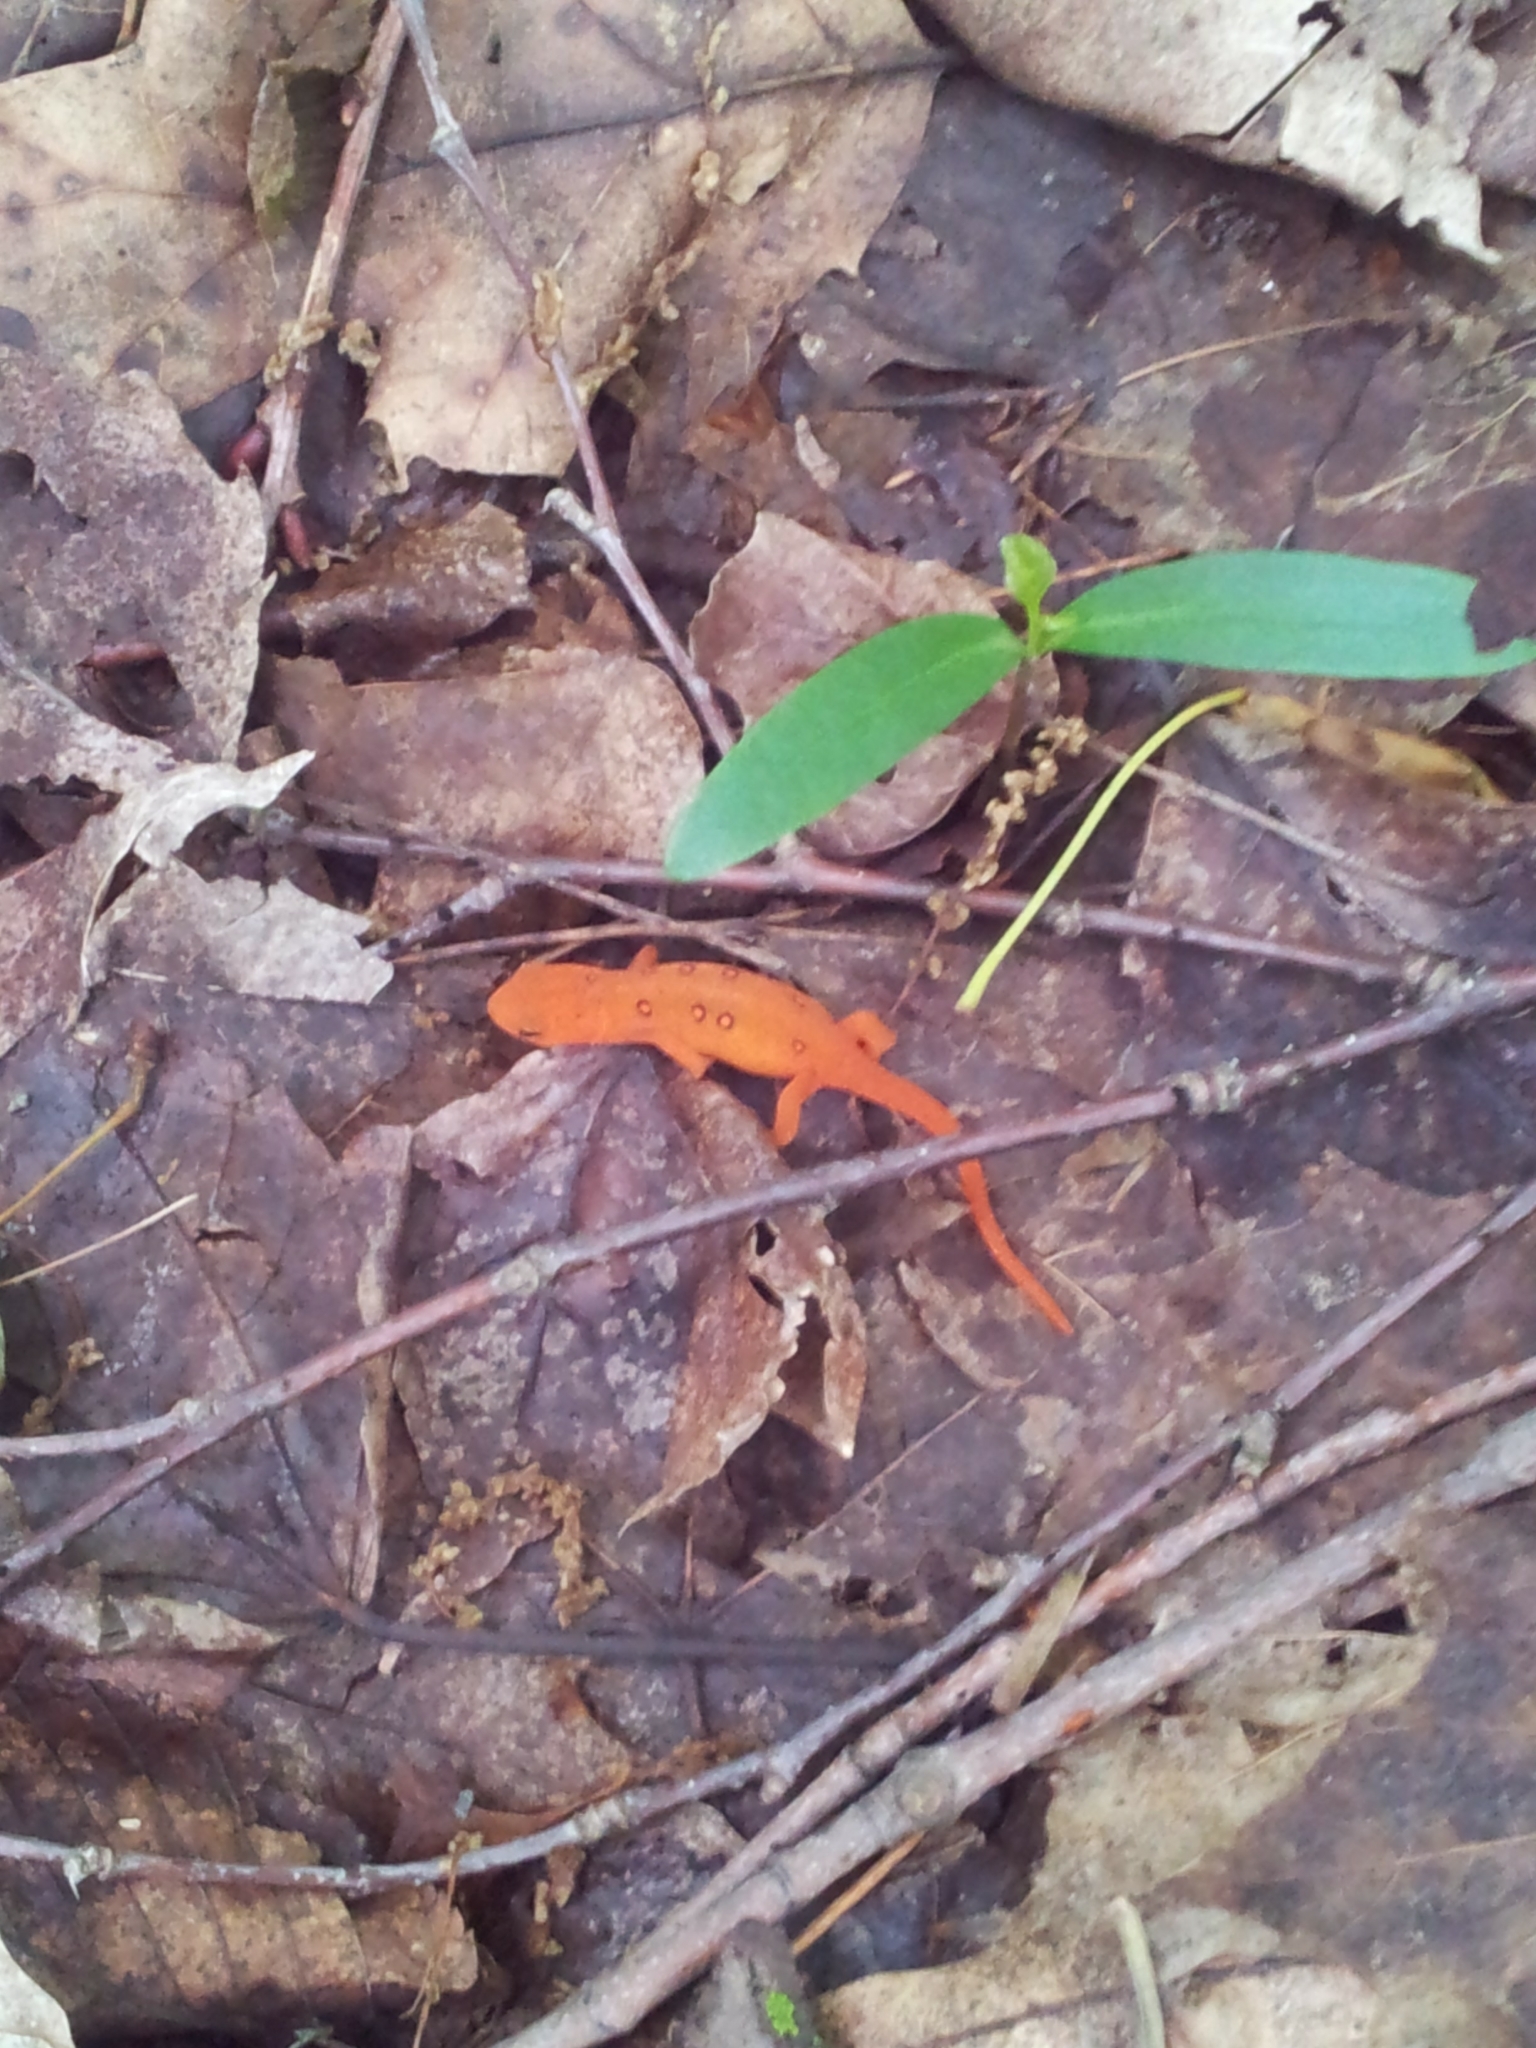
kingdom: Animalia
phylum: Chordata
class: Amphibia
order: Caudata
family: Salamandridae
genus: Notophthalmus
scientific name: Notophthalmus viridescens
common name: Eastern newt
